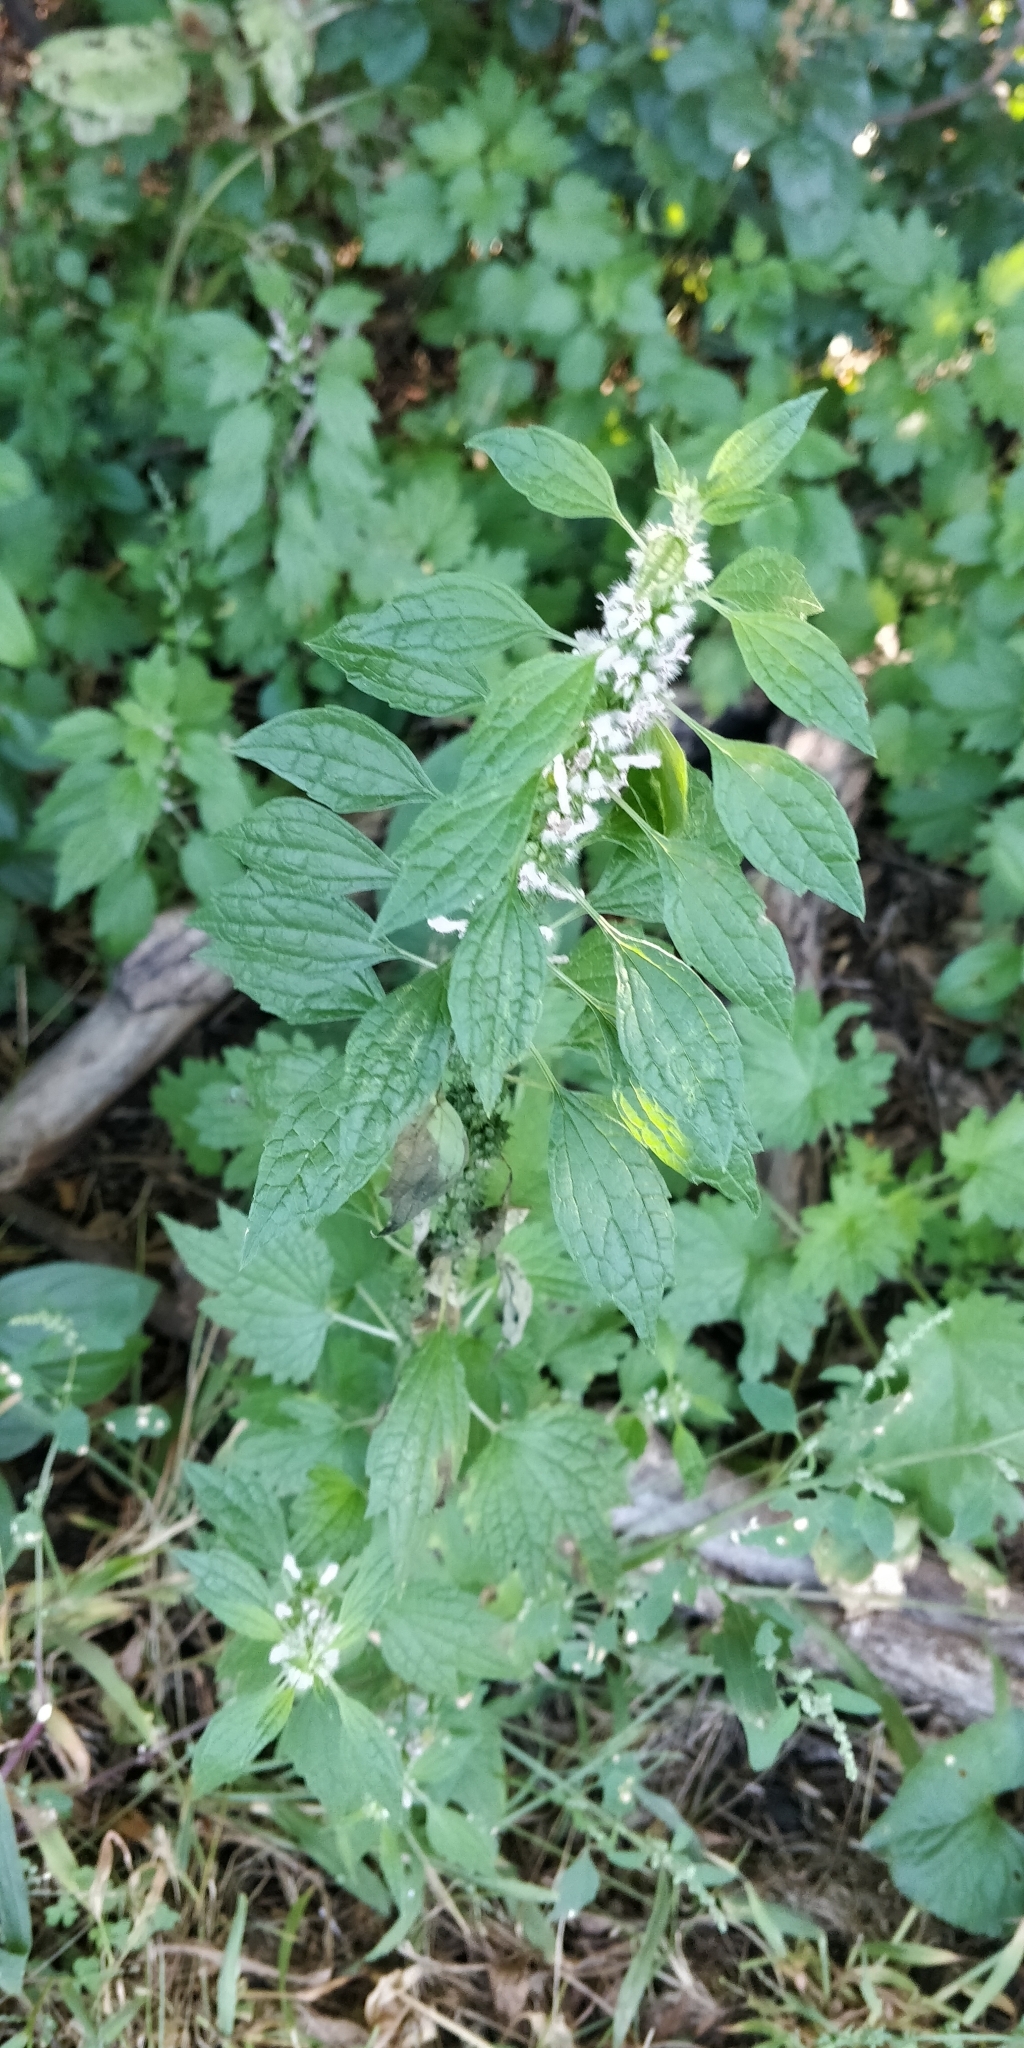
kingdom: Plantae
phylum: Tracheophyta
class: Magnoliopsida
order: Lamiales
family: Lamiaceae
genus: Leonurus
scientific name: Leonurus cardiaca
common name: Motherwort
